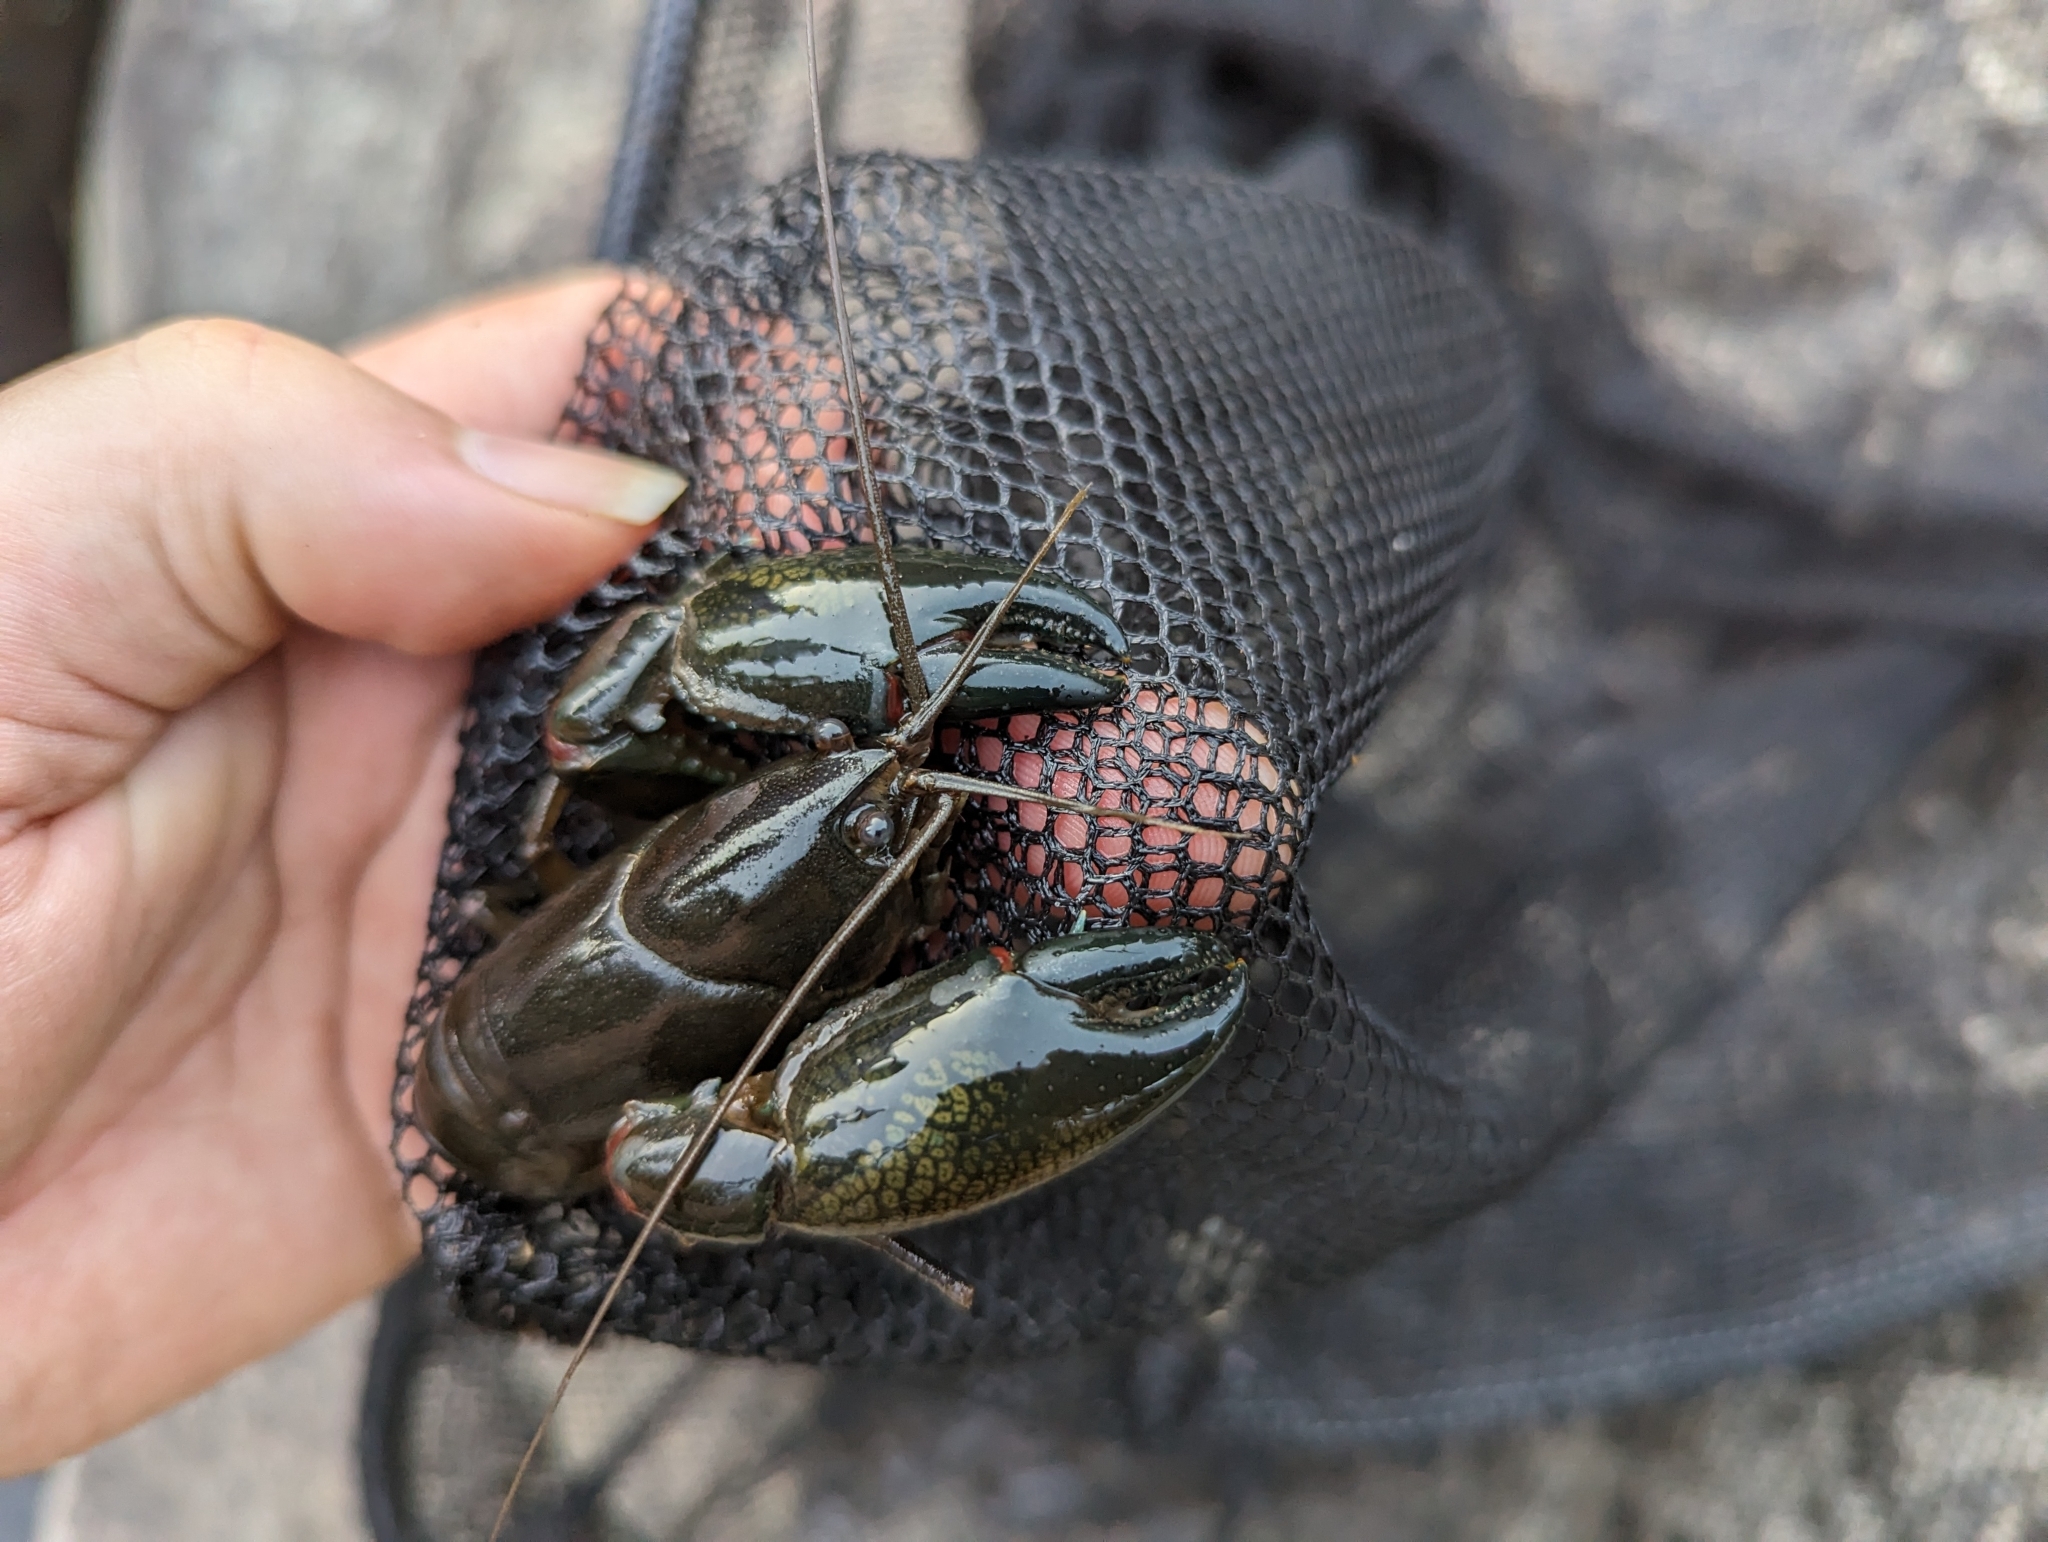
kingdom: Animalia
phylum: Arthropoda
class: Malacostraca
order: Decapoda
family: Parastacidae
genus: Cherax
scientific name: Cherax destructor
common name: Yabby
